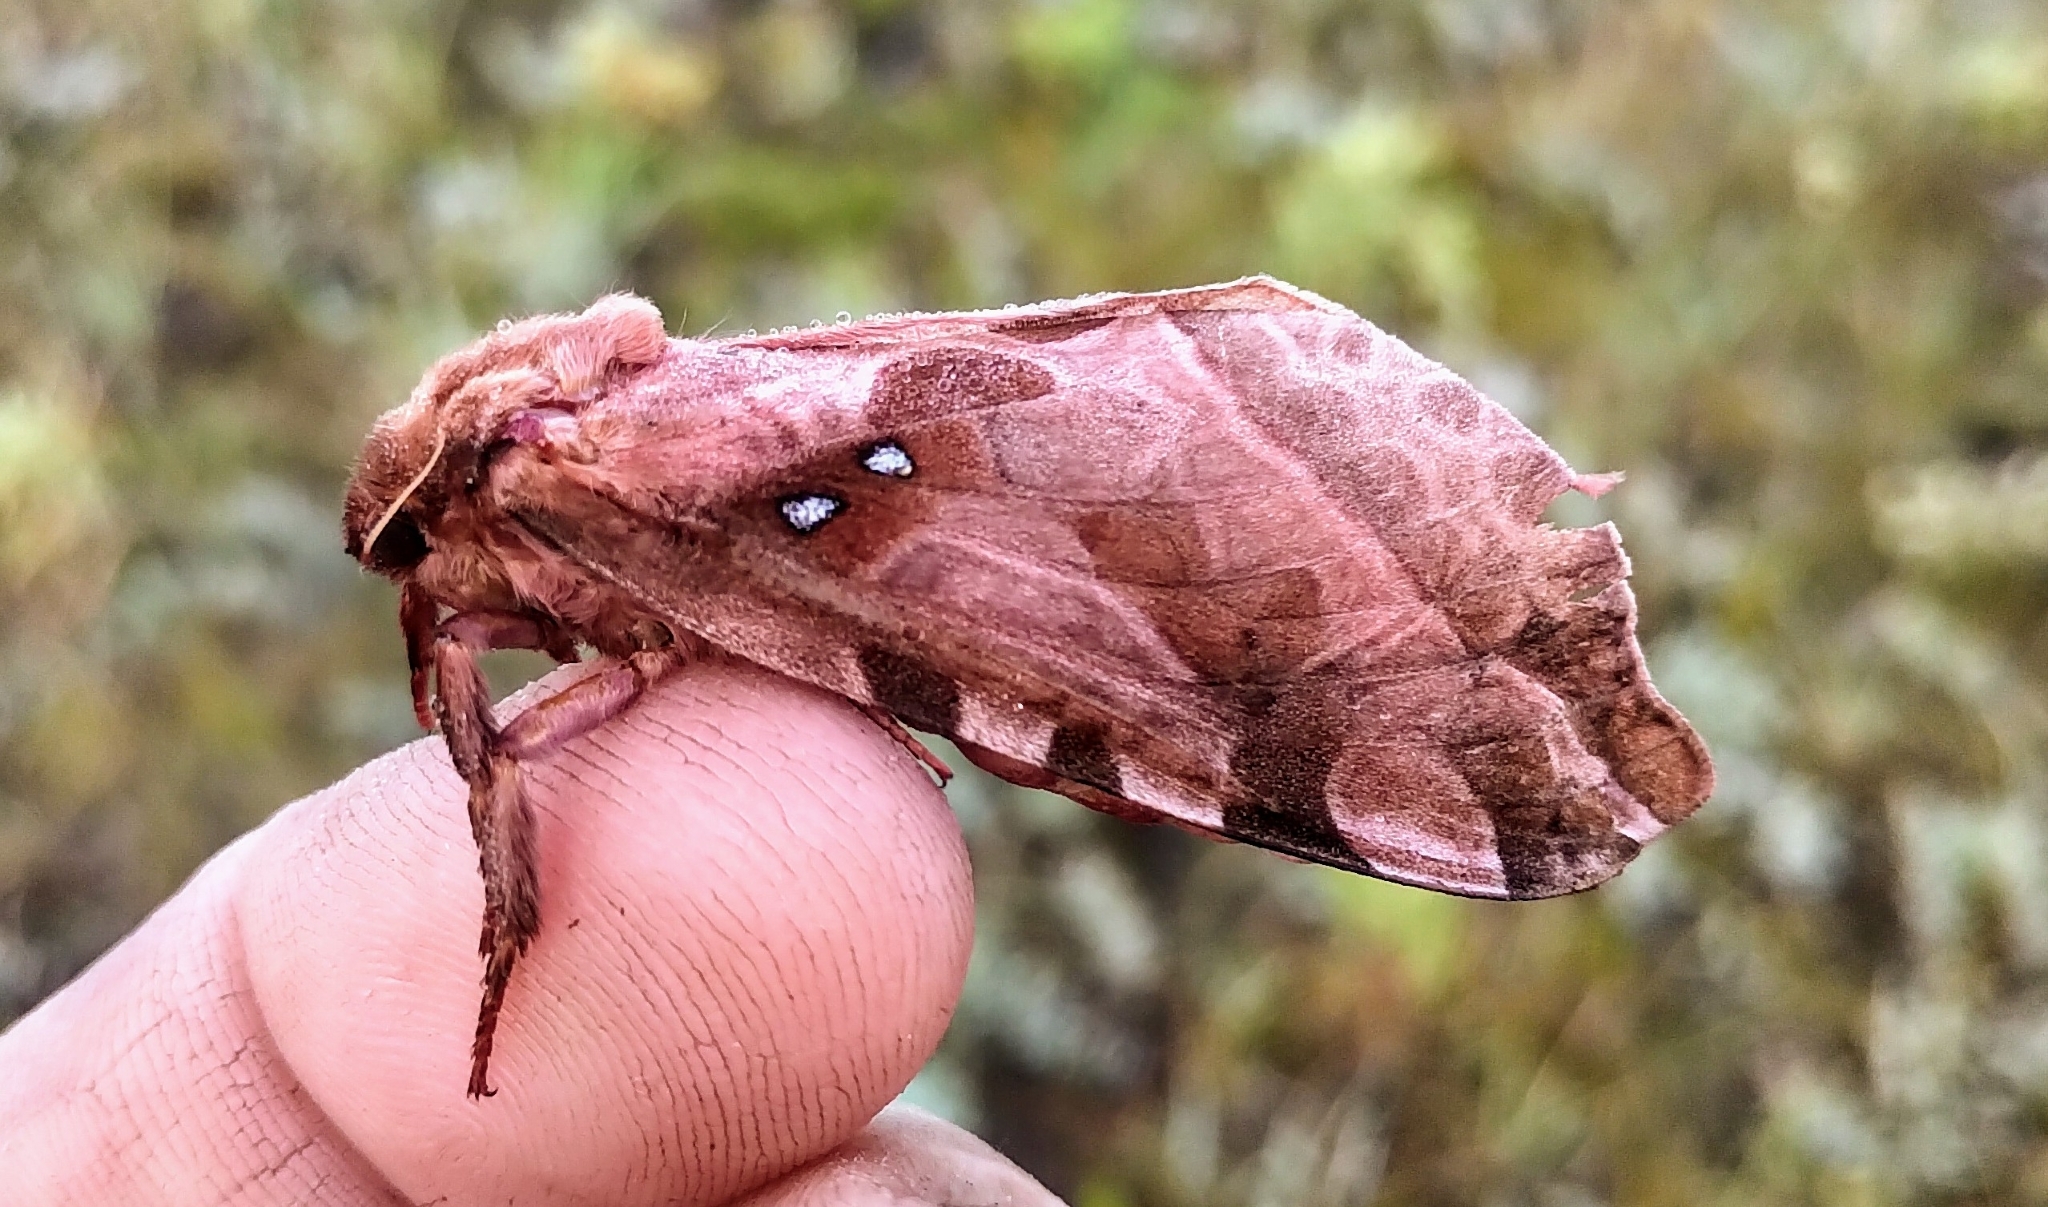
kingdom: Animalia
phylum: Arthropoda
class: Insecta
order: Lepidoptera
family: Hepialidae
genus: Sthenopis
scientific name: Sthenopis purpurascens
